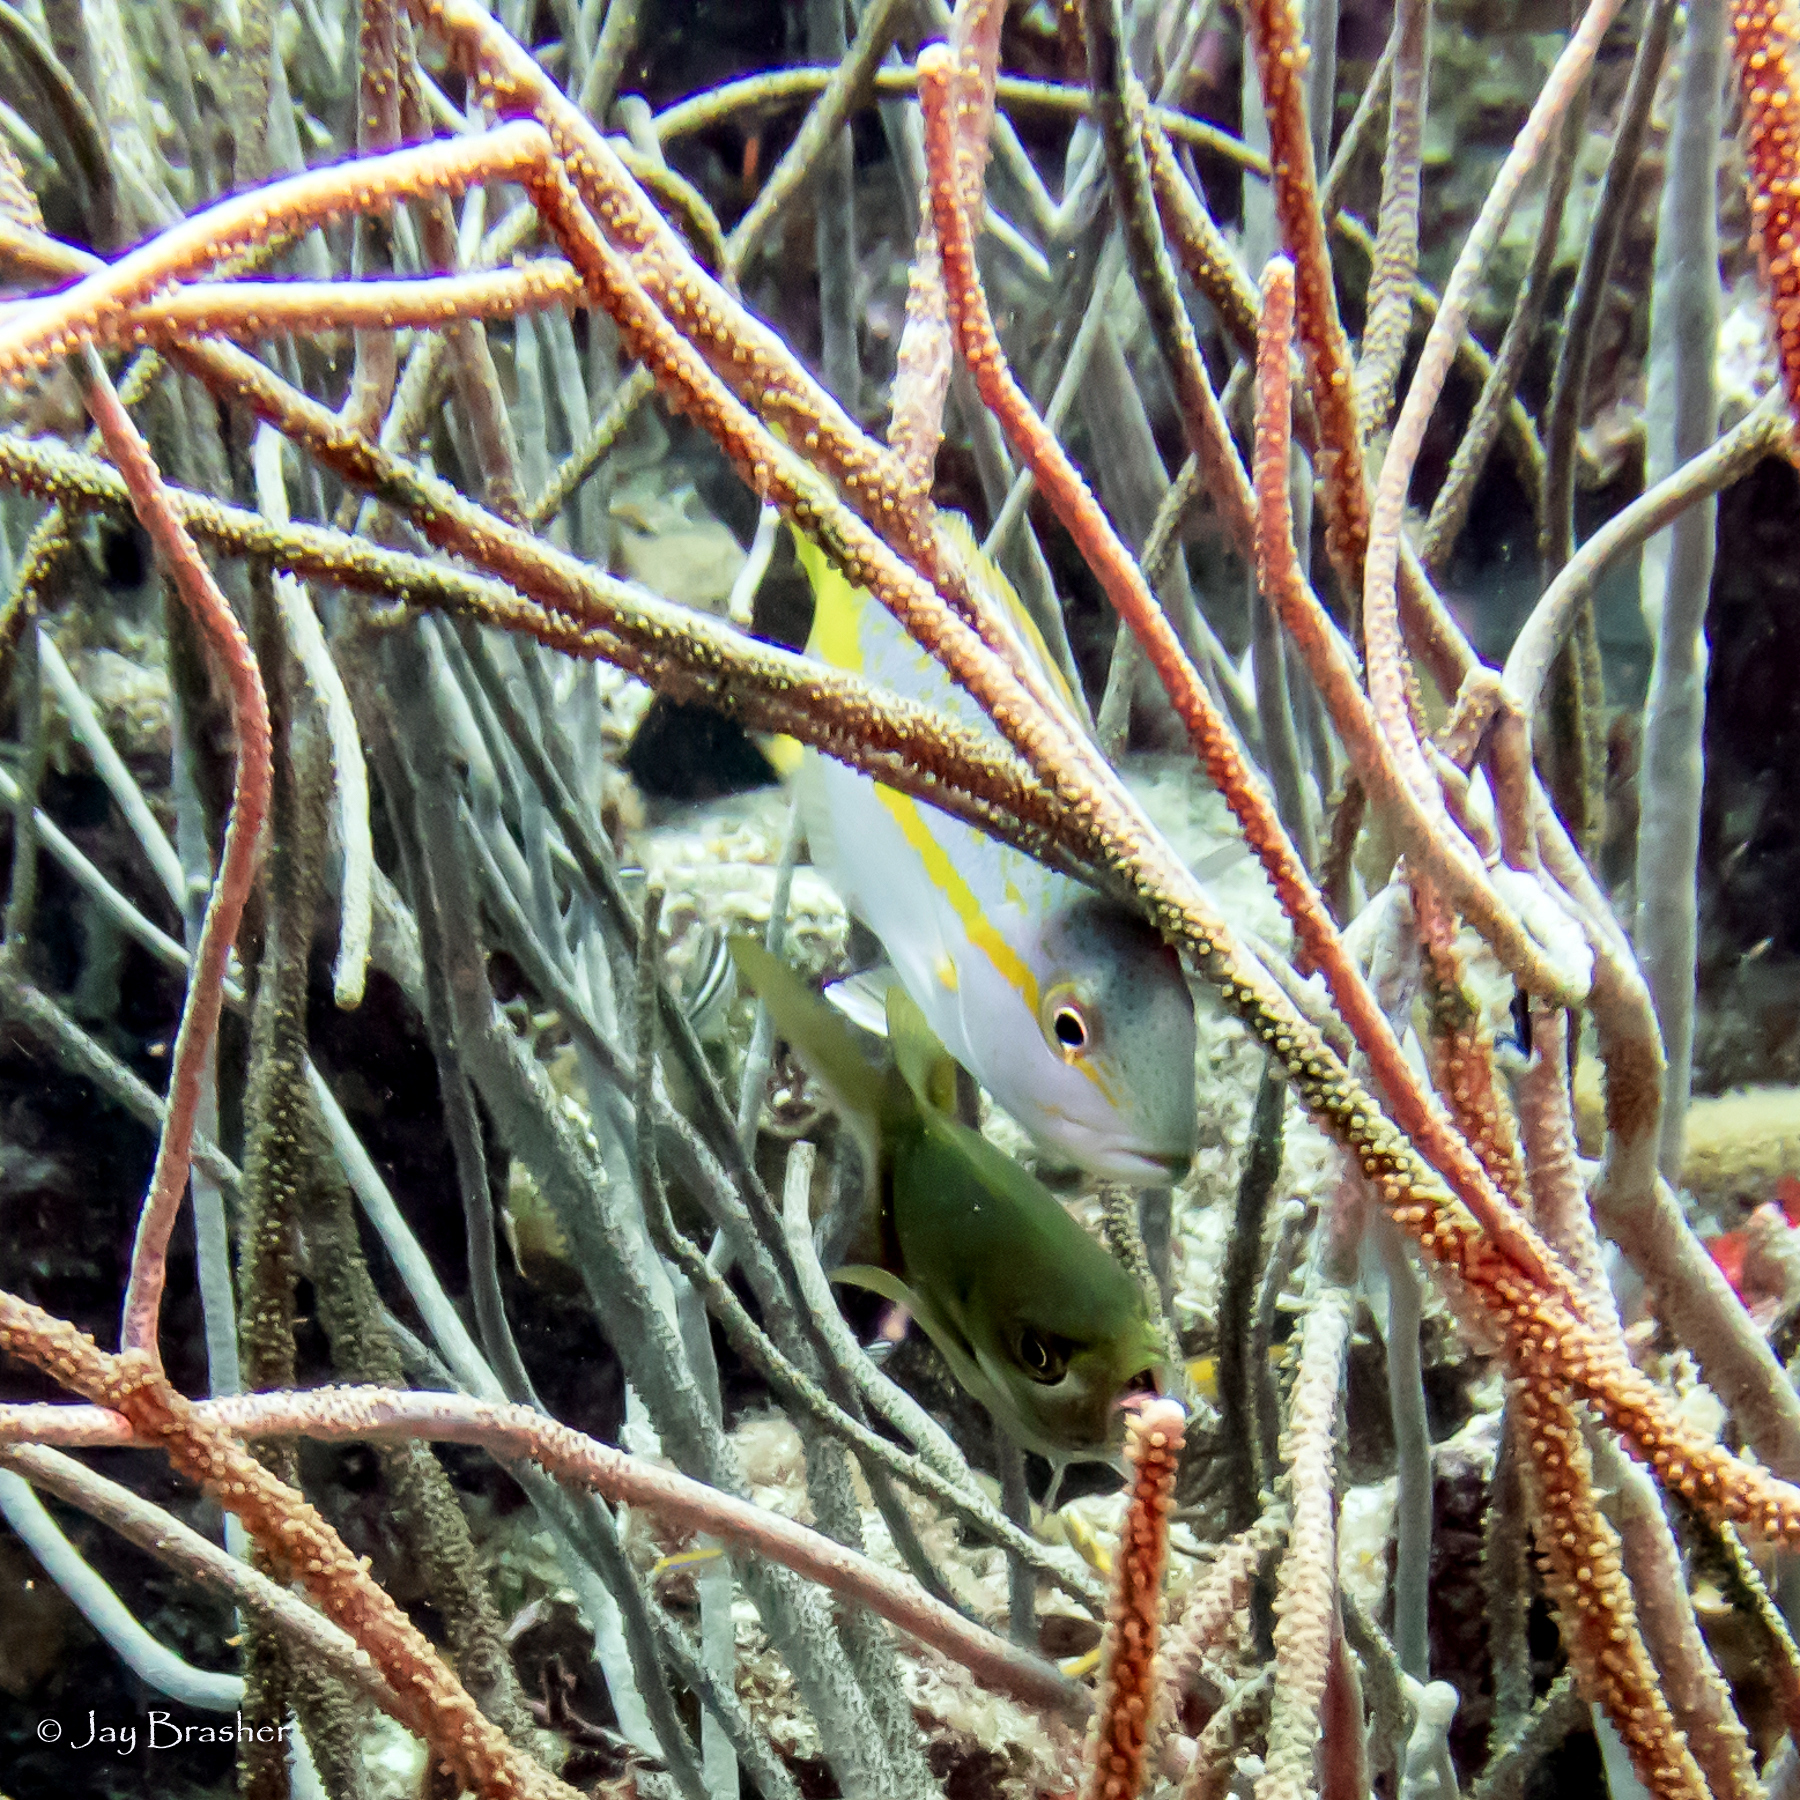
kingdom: Animalia
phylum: Chordata
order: Perciformes
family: Lutjanidae
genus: Ocyurus
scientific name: Ocyurus chrysurus
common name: Yellowtail snapper
